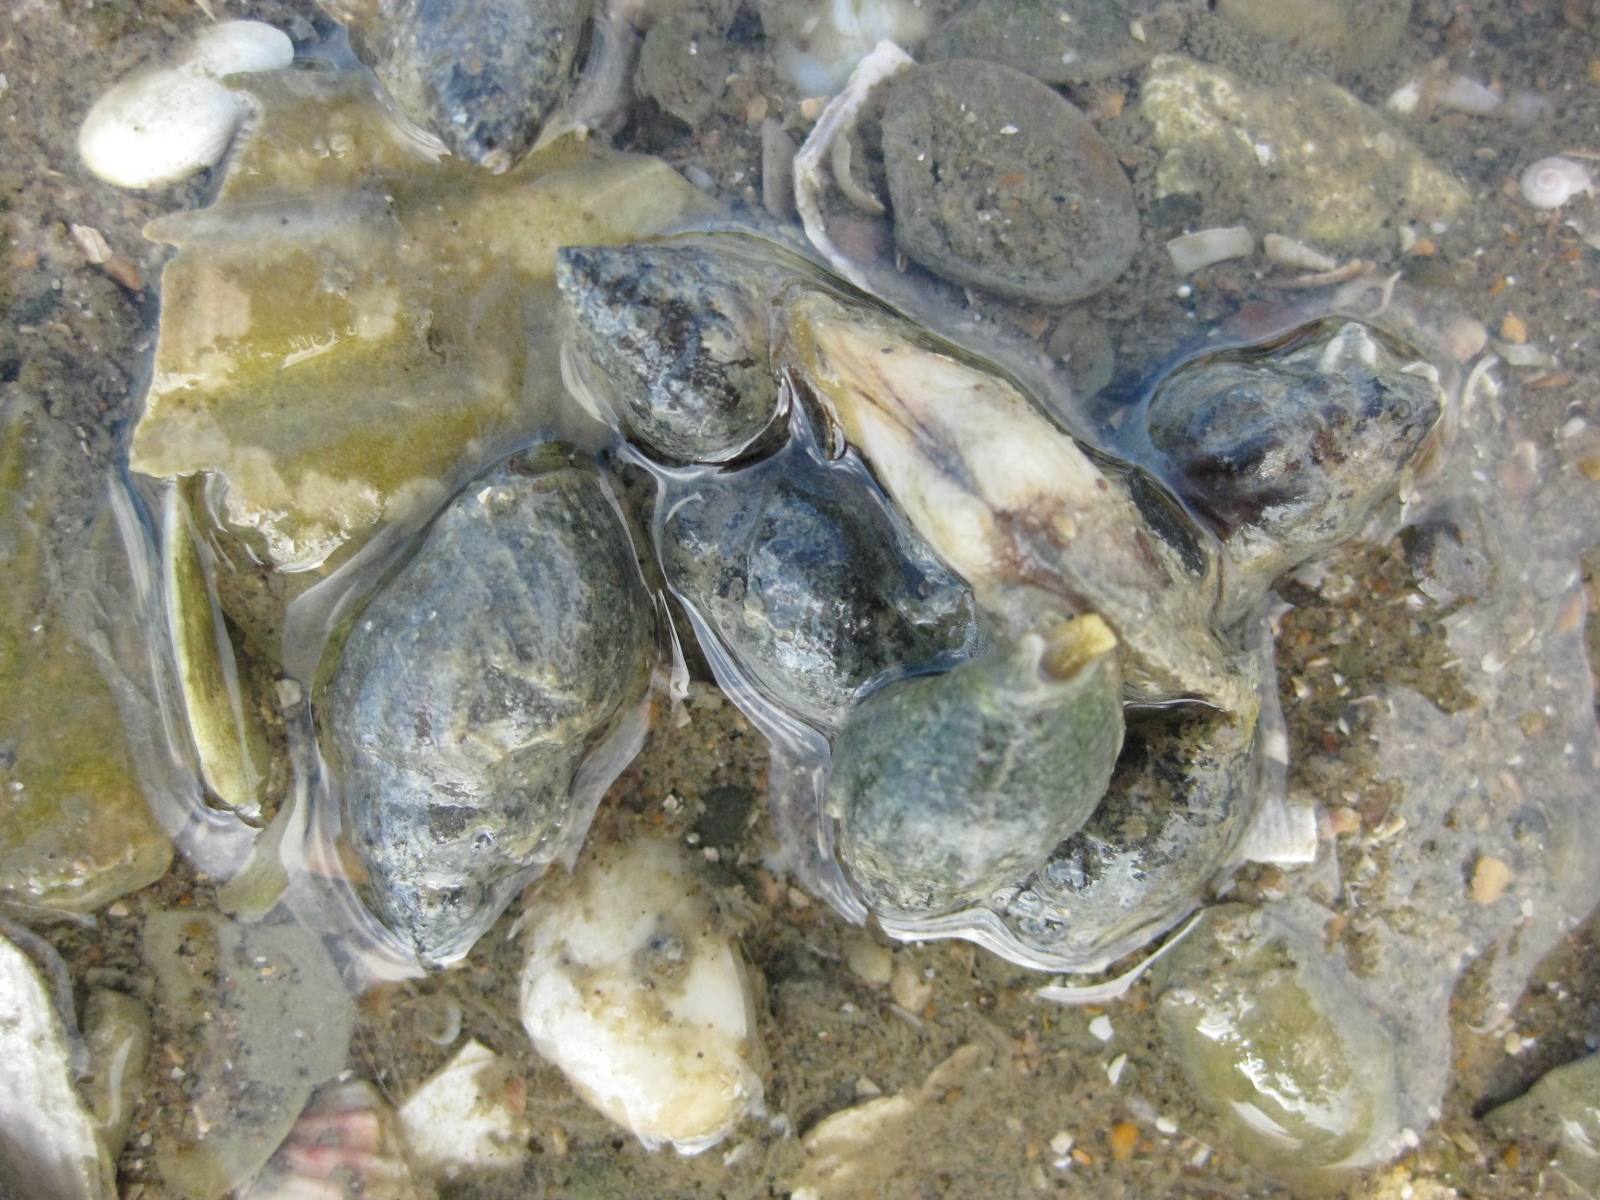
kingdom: Animalia
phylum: Mollusca
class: Gastropoda
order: Neogastropoda
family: Cominellidae
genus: Cominella
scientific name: Cominella glandiformis
